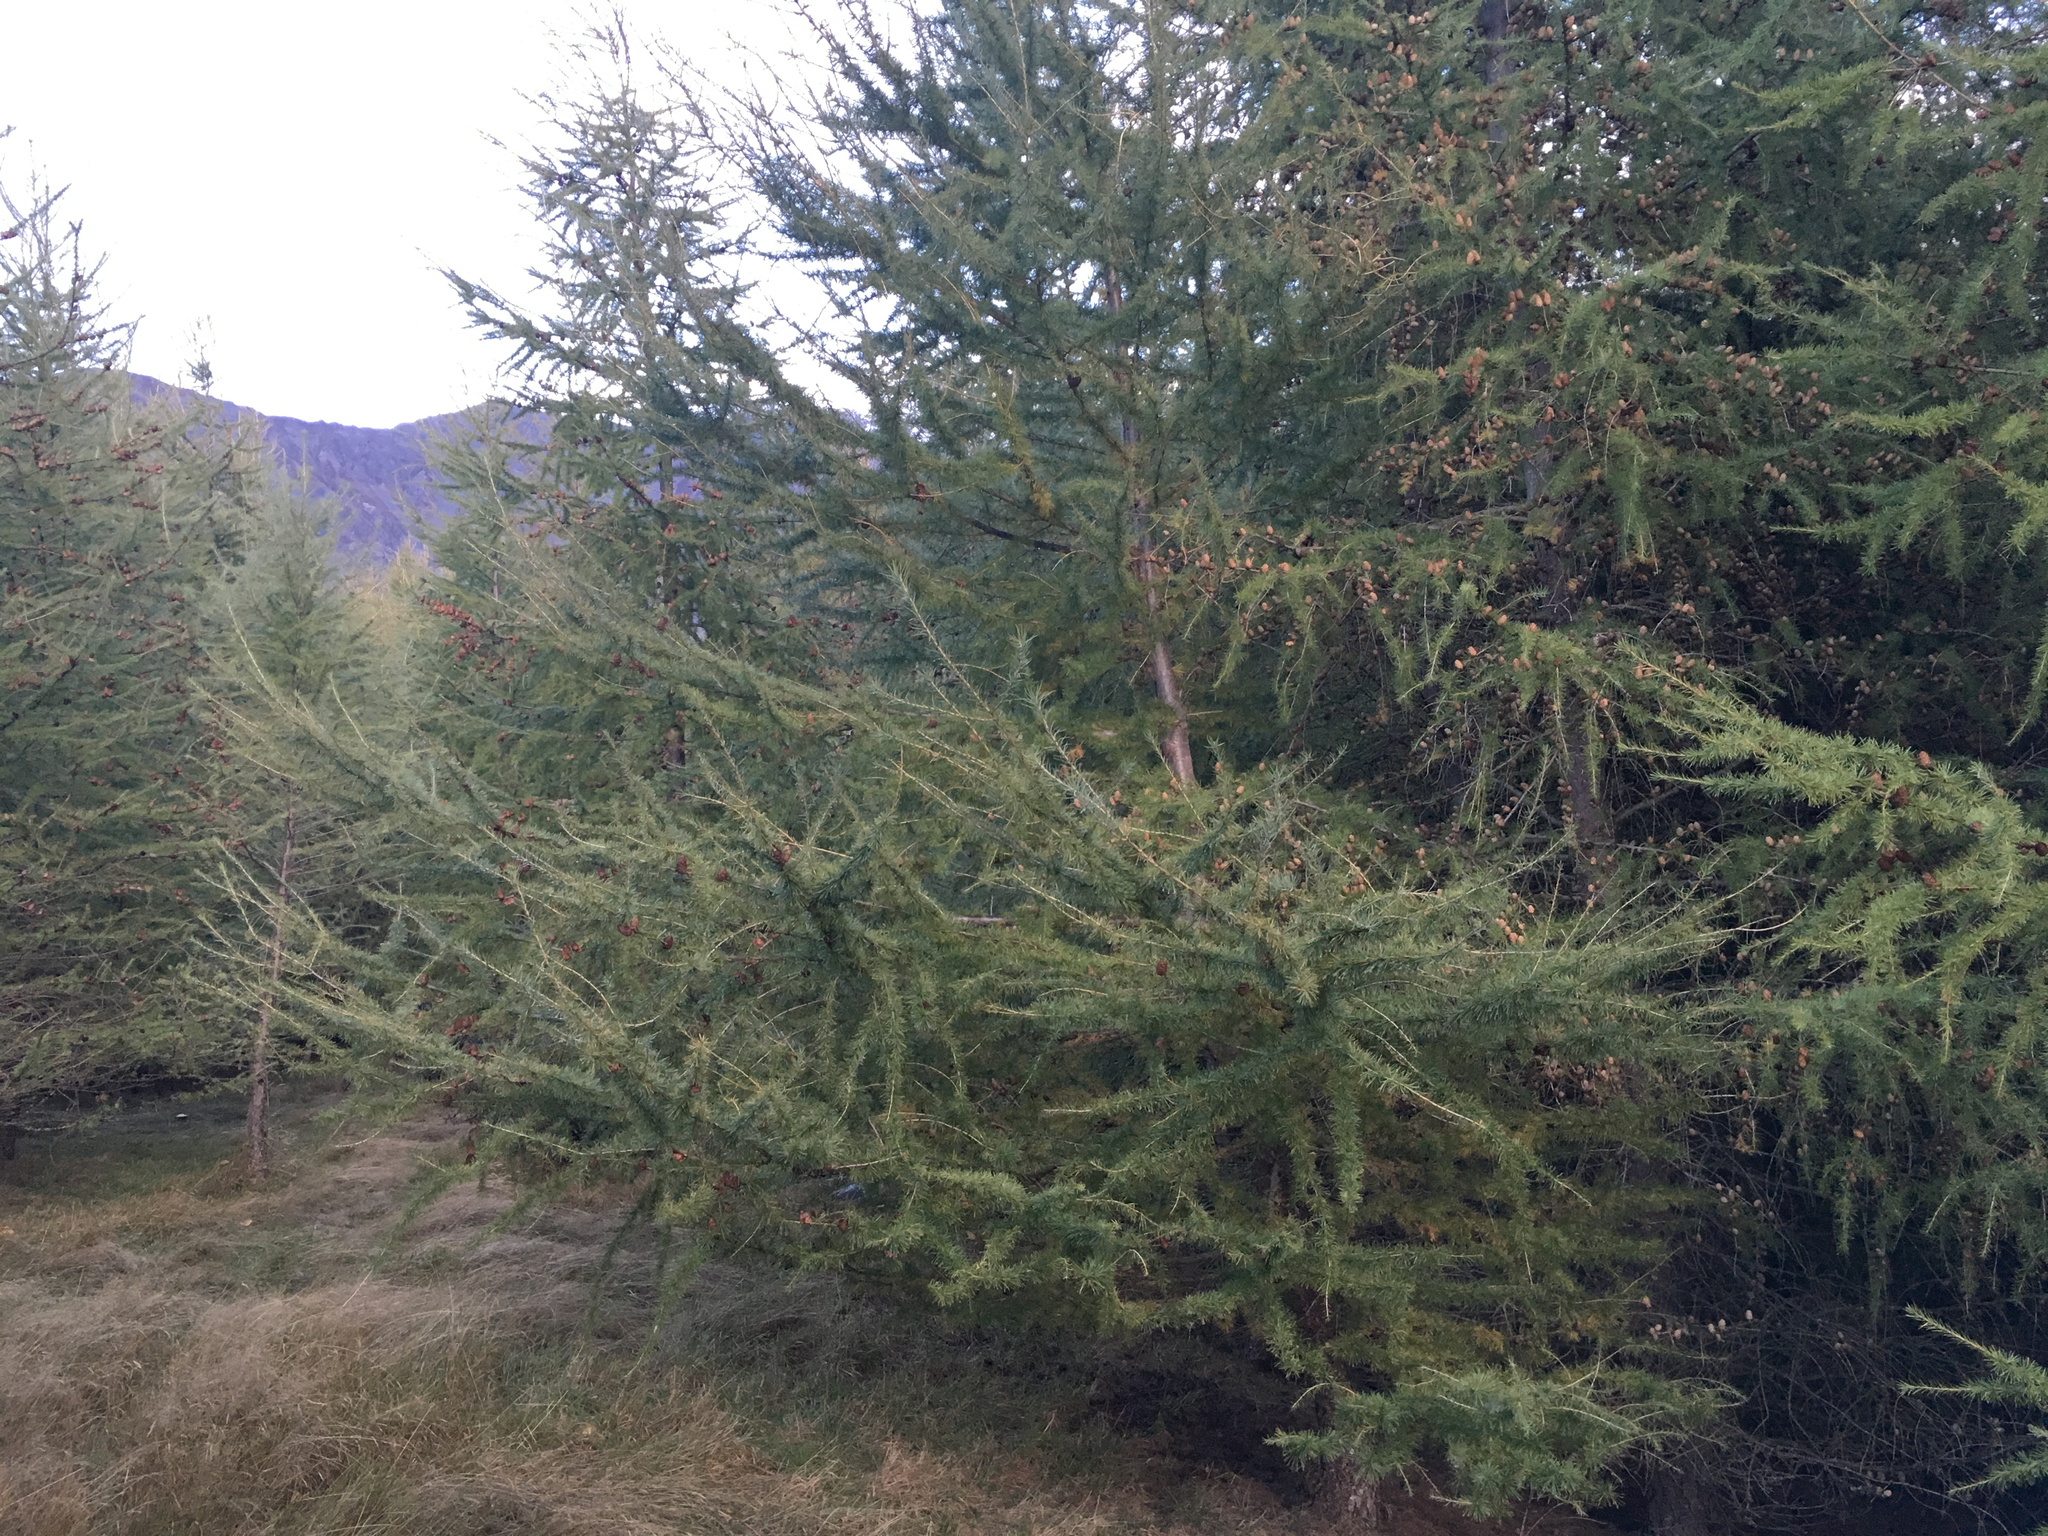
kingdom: Plantae
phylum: Tracheophyta
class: Pinopsida
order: Pinales
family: Pinaceae
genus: Larix
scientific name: Larix decidua
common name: European larch
